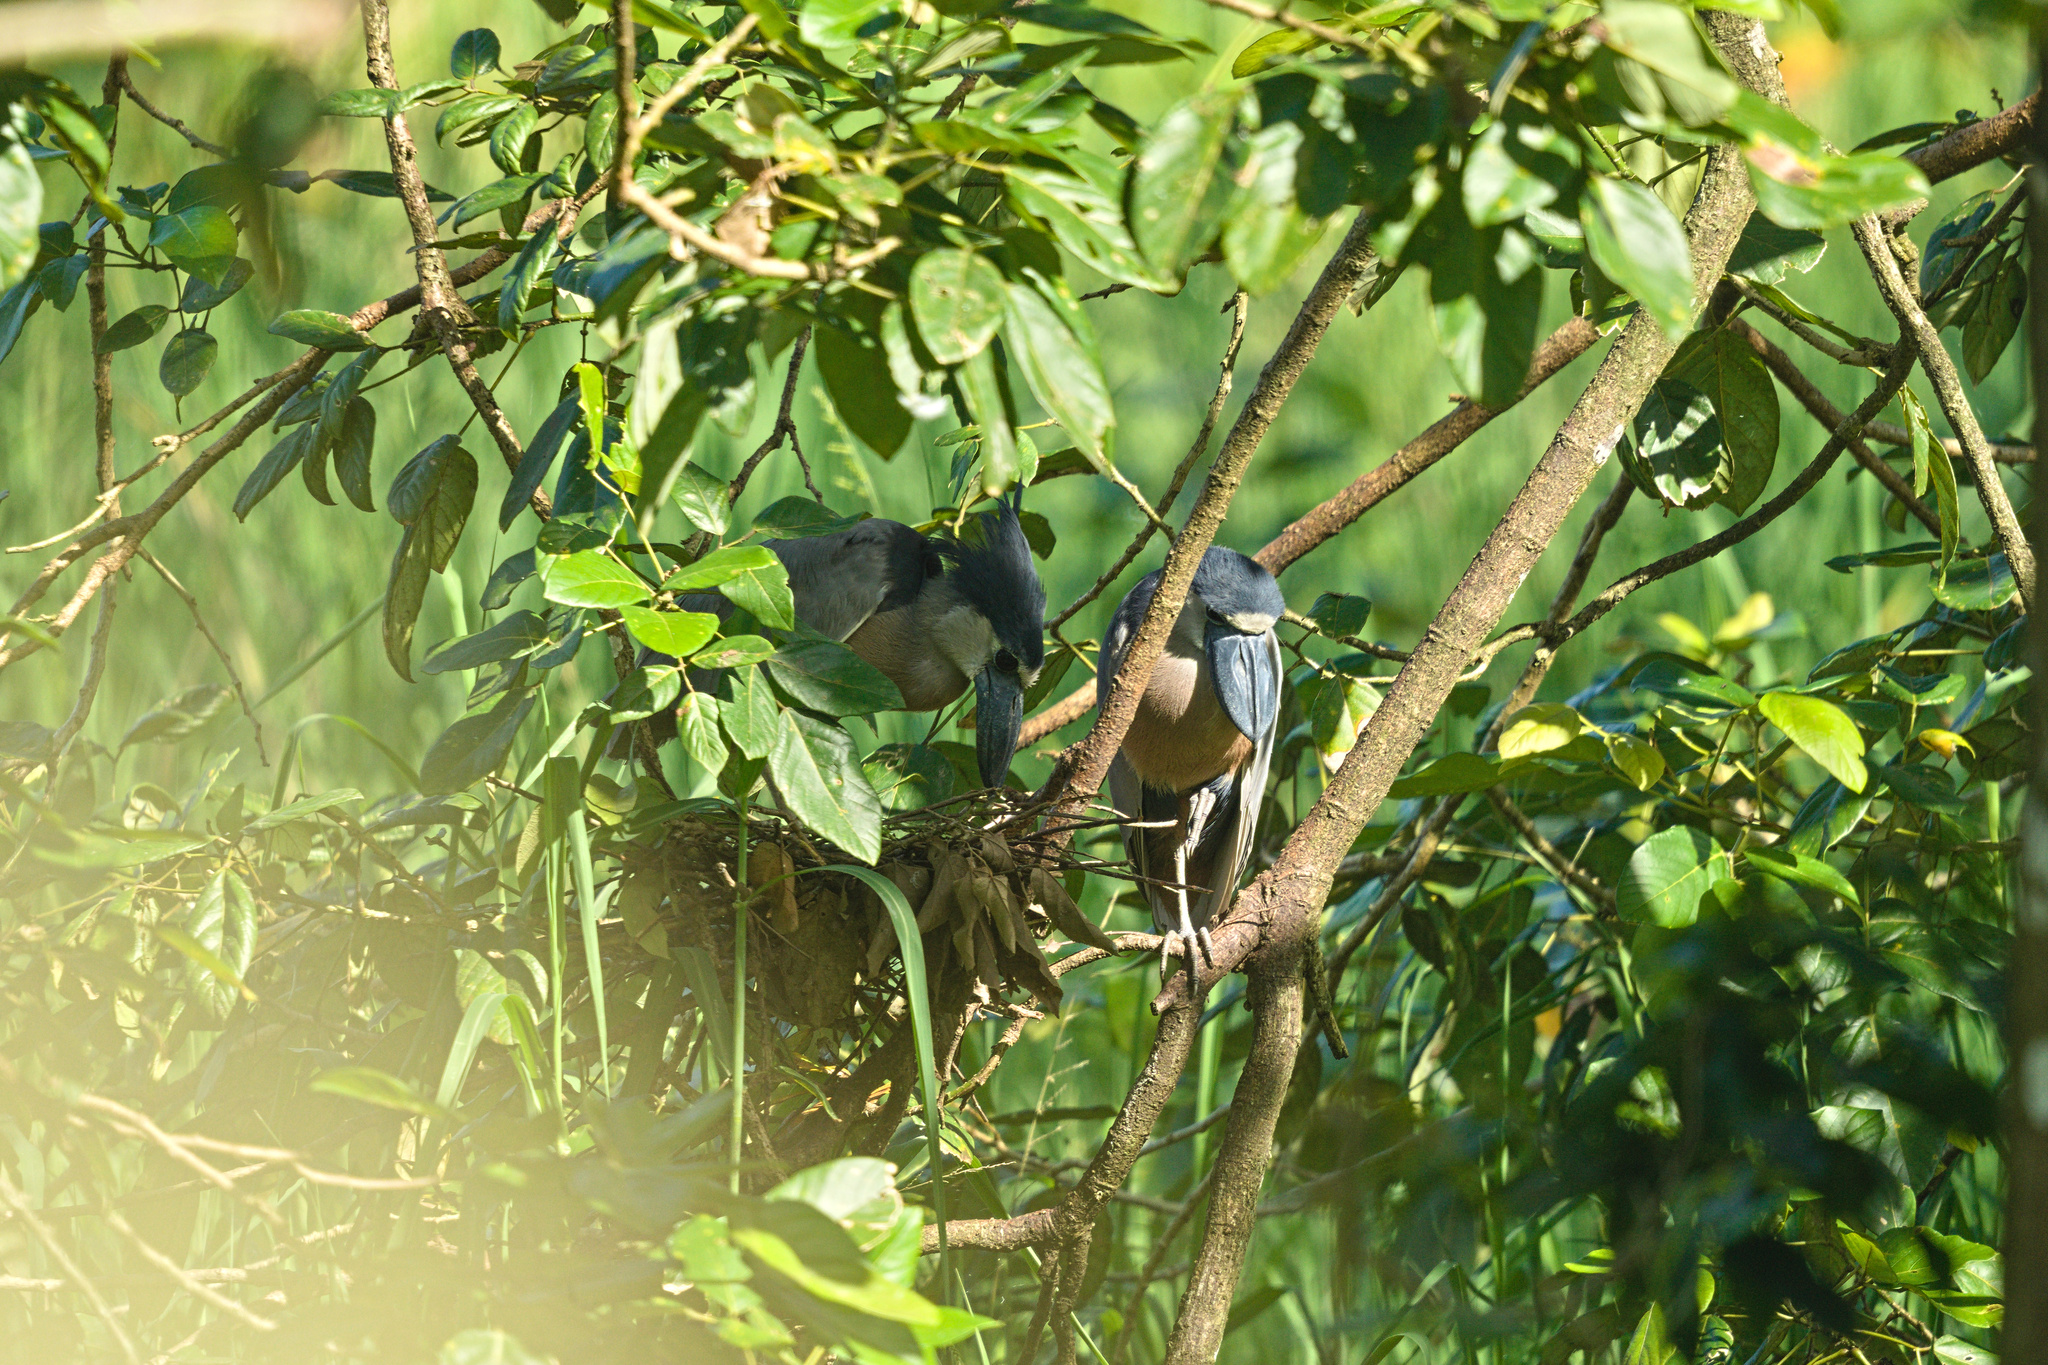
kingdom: Animalia
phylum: Chordata
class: Aves
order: Pelecaniformes
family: Ardeidae
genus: Cochlearius
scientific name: Cochlearius cochlearius
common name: Boat-billed heron
